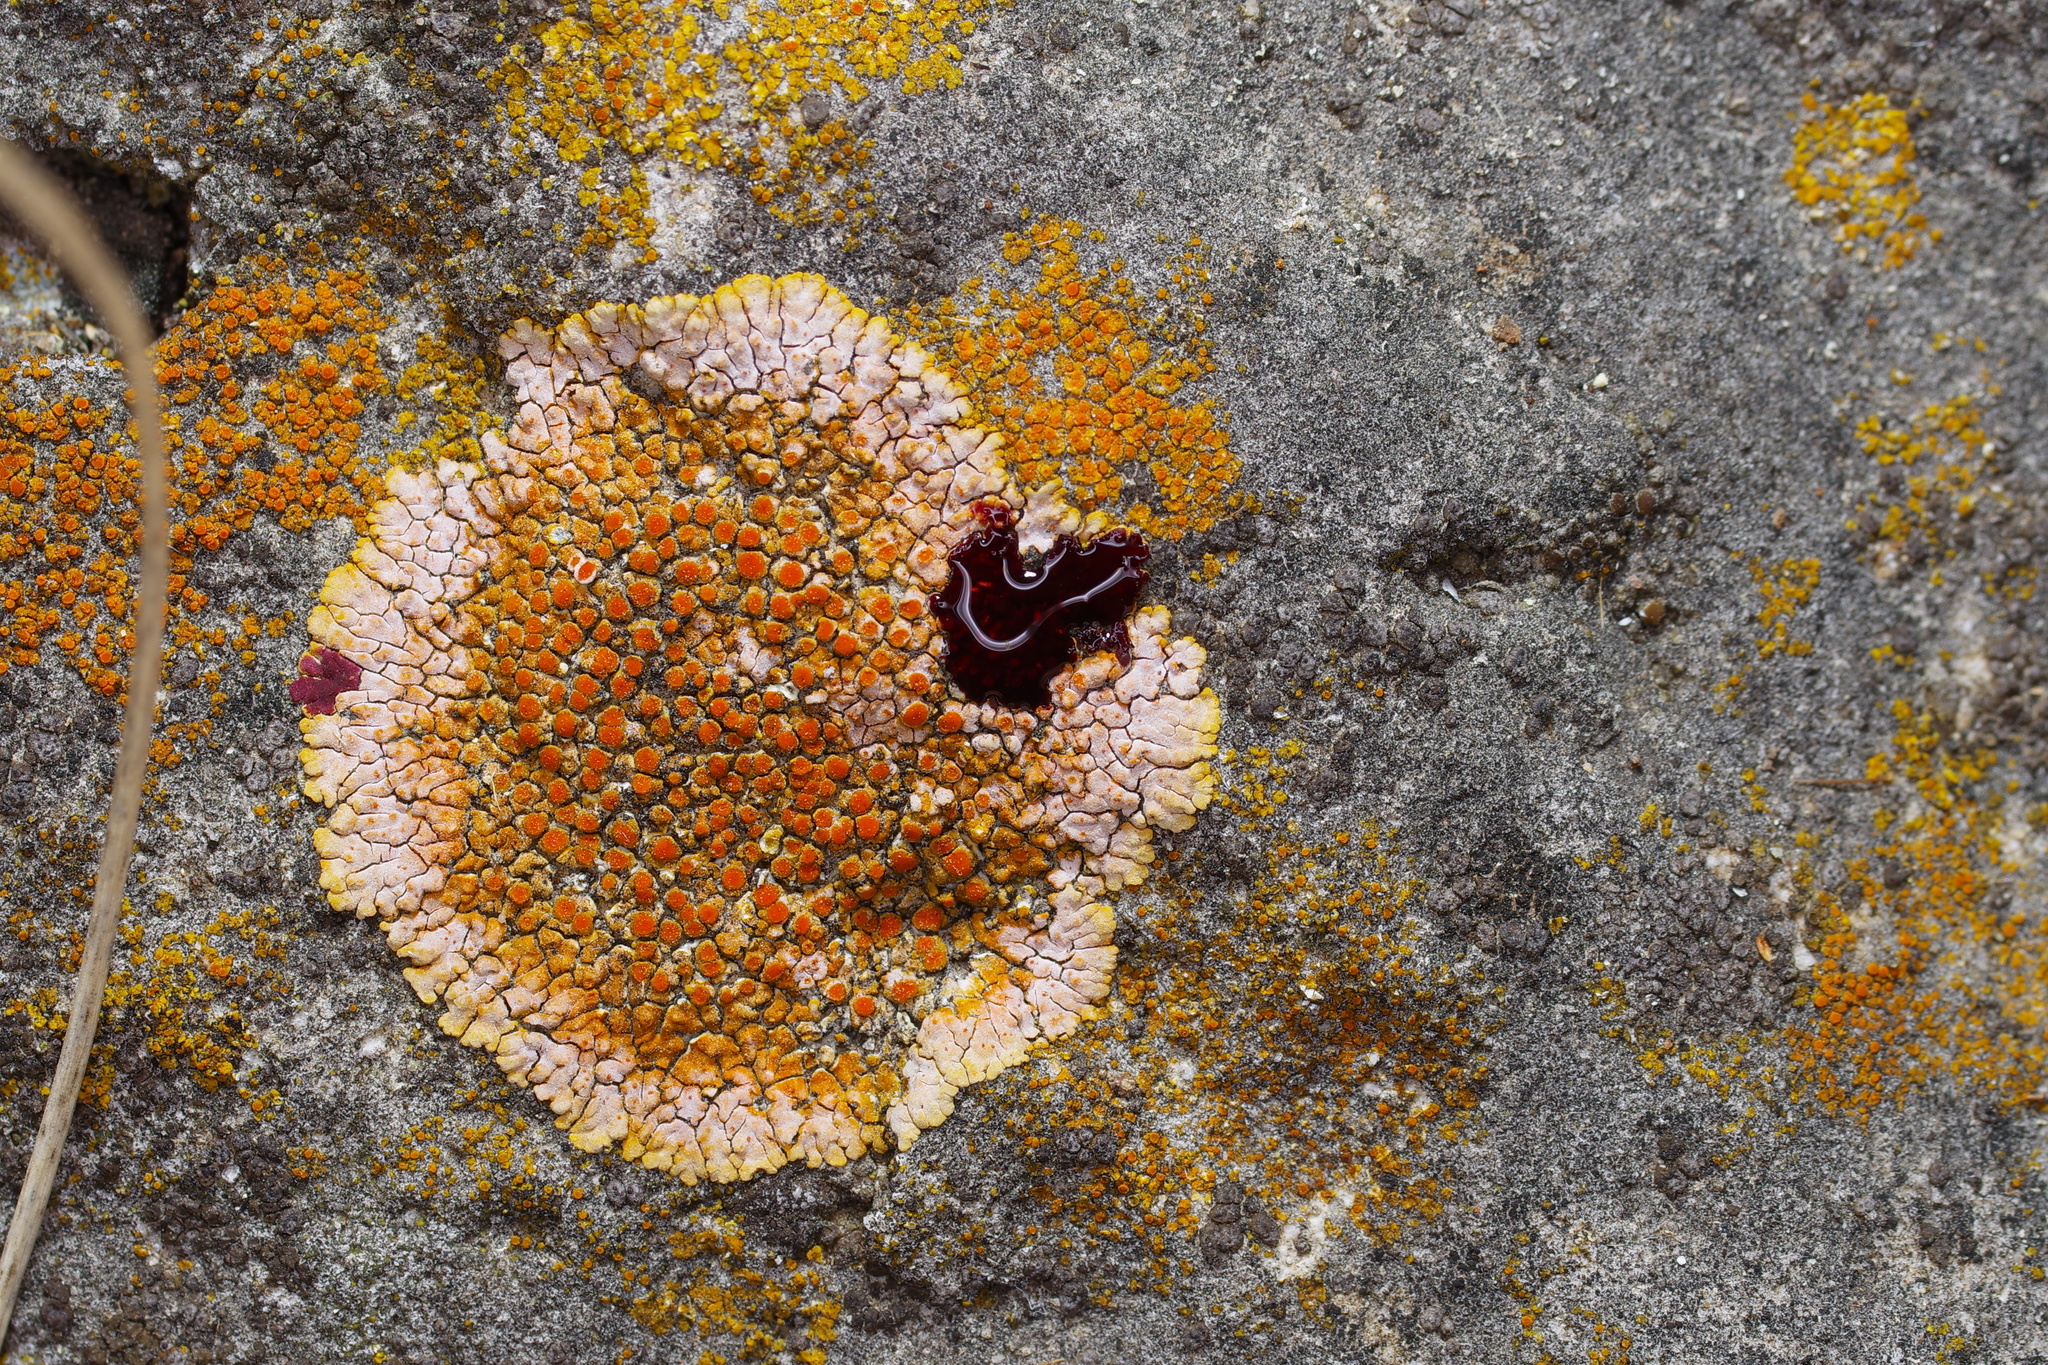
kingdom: Fungi
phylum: Ascomycota
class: Lecanoromycetes
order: Teloschistales
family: Teloschistaceae
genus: Calogaya
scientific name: Calogaya saxicola
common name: Rock jewel lichen
